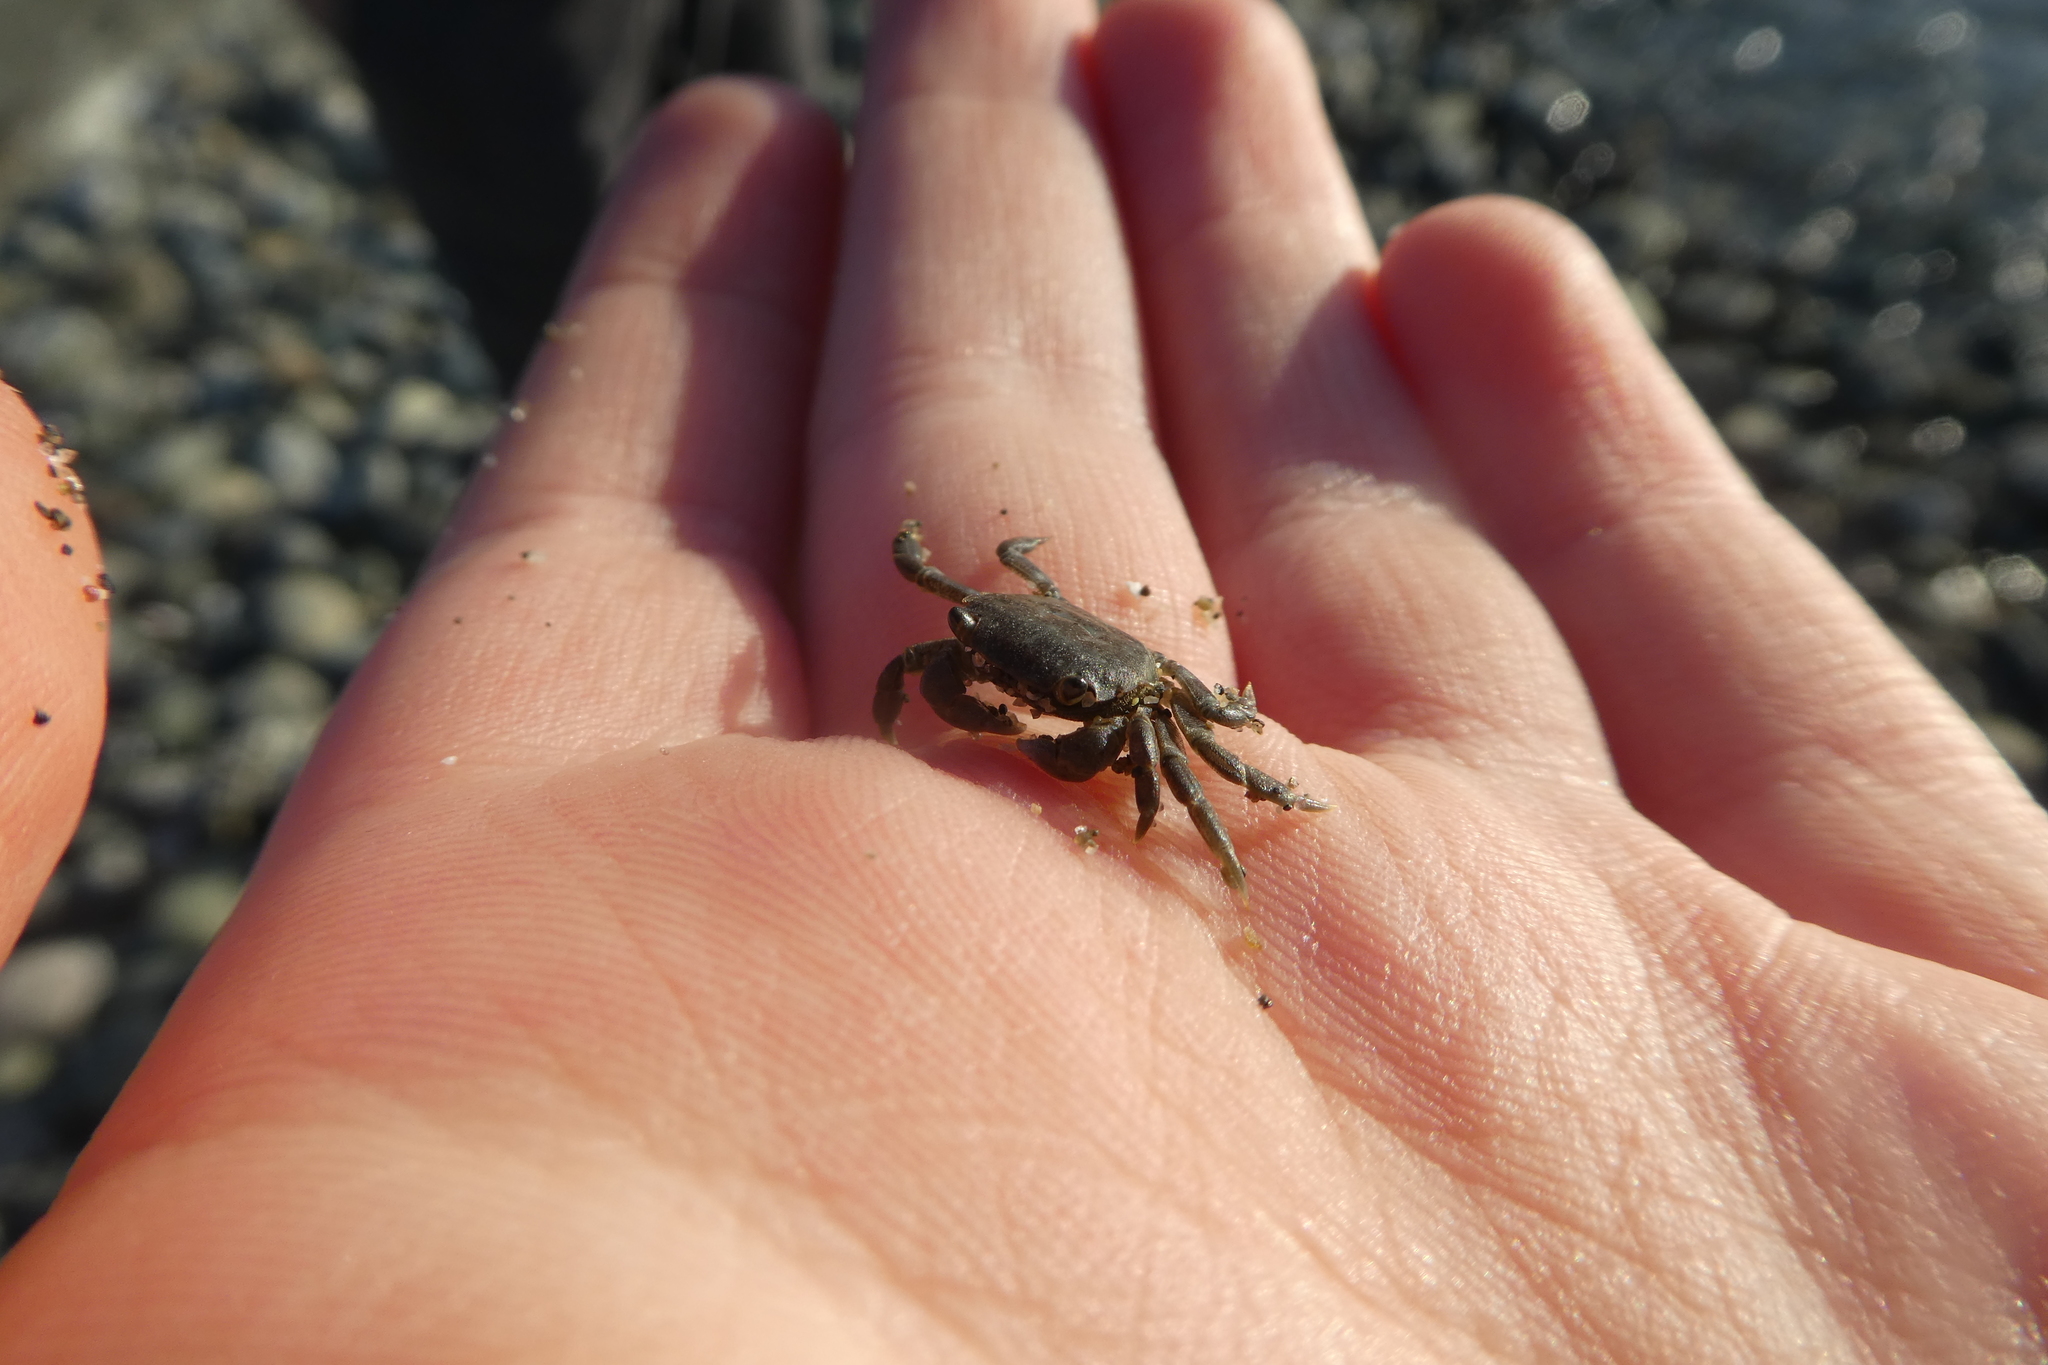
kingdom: Animalia
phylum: Arthropoda
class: Malacostraca
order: Decapoda
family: Varunidae
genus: Hemigrapsus
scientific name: Hemigrapsus nudus
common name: Purple shore crab
